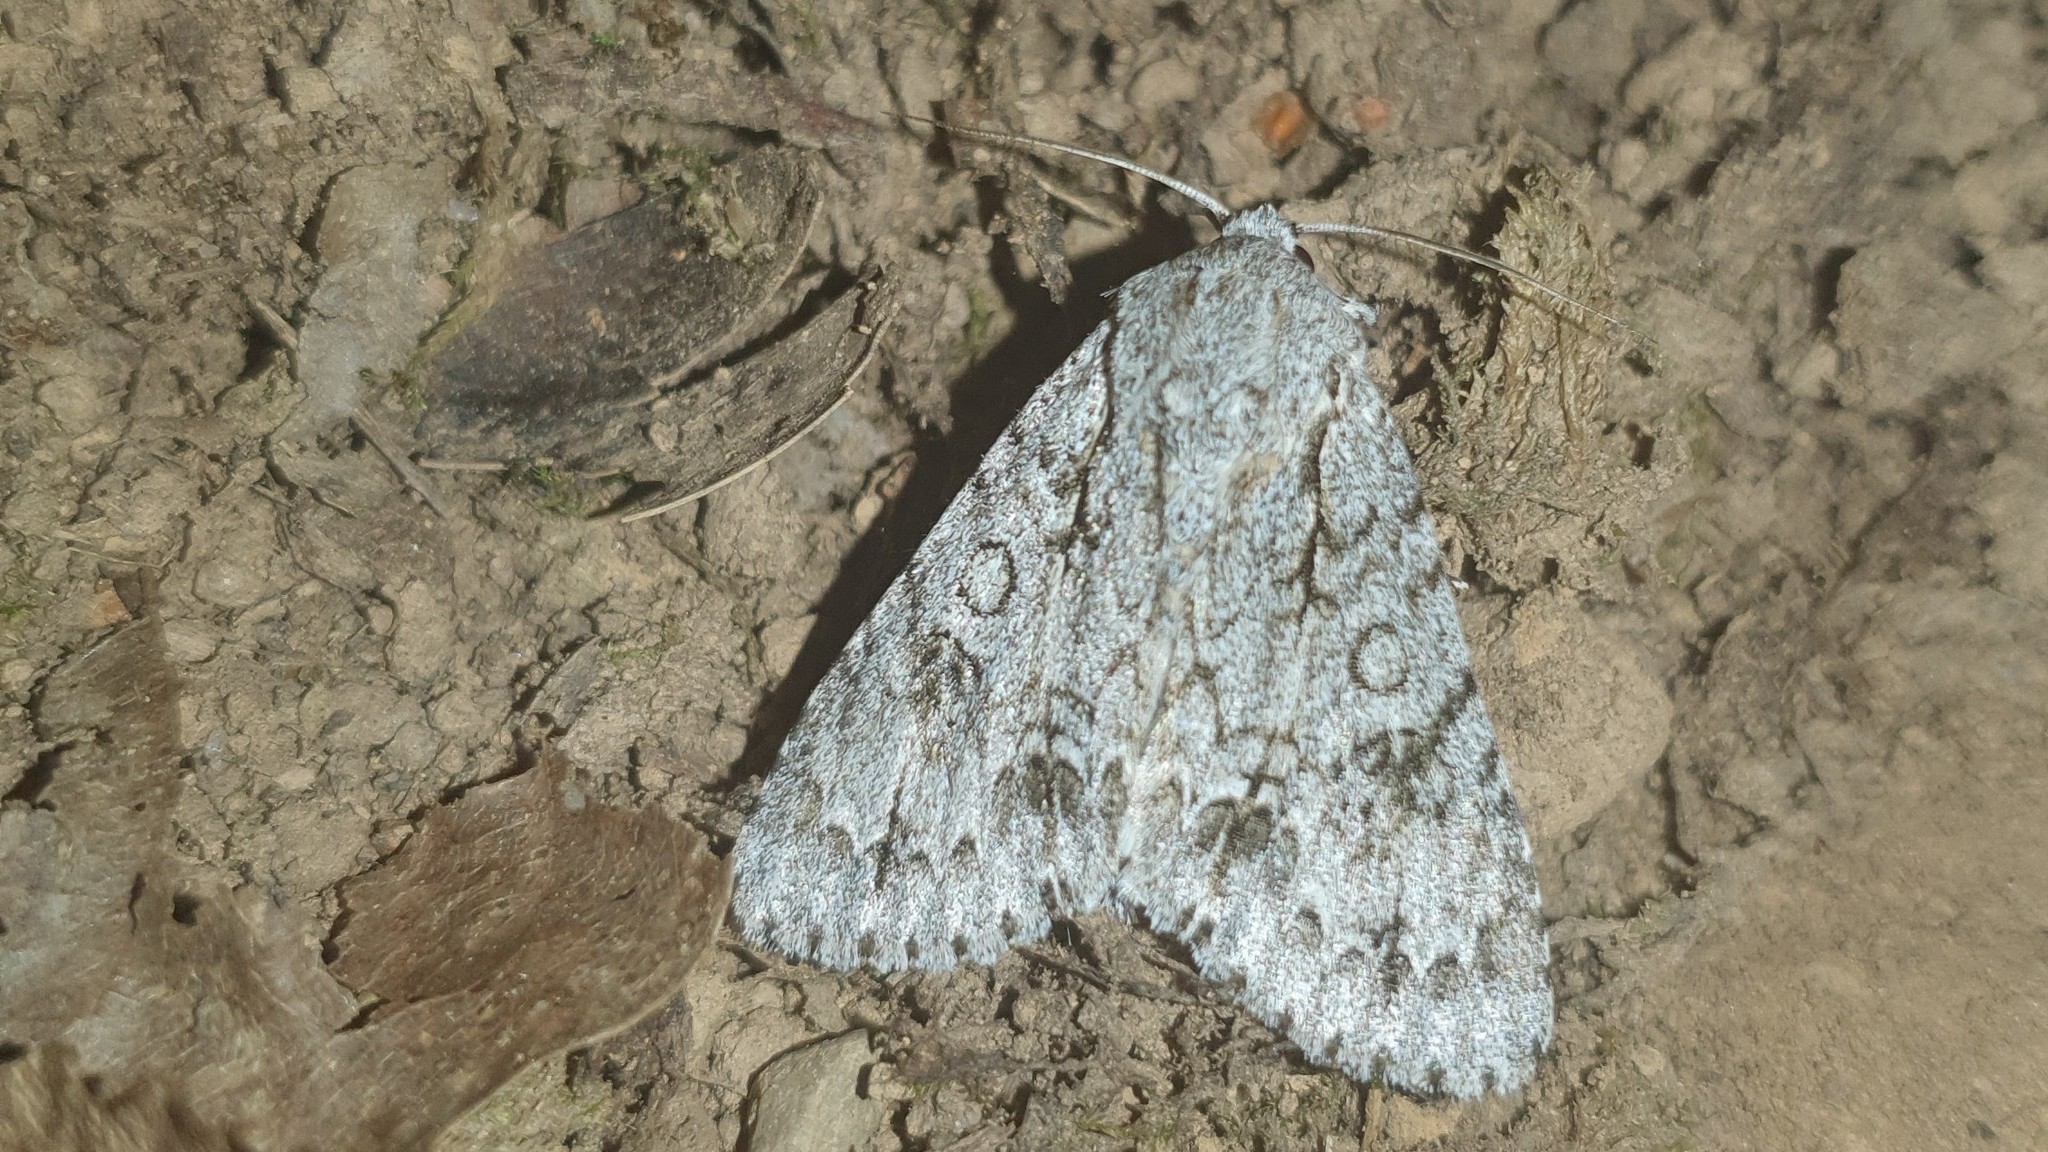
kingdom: Animalia
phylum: Arthropoda
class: Insecta
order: Lepidoptera
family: Noctuidae
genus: Acronicta
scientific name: Acronicta aceris
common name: Sycamore
